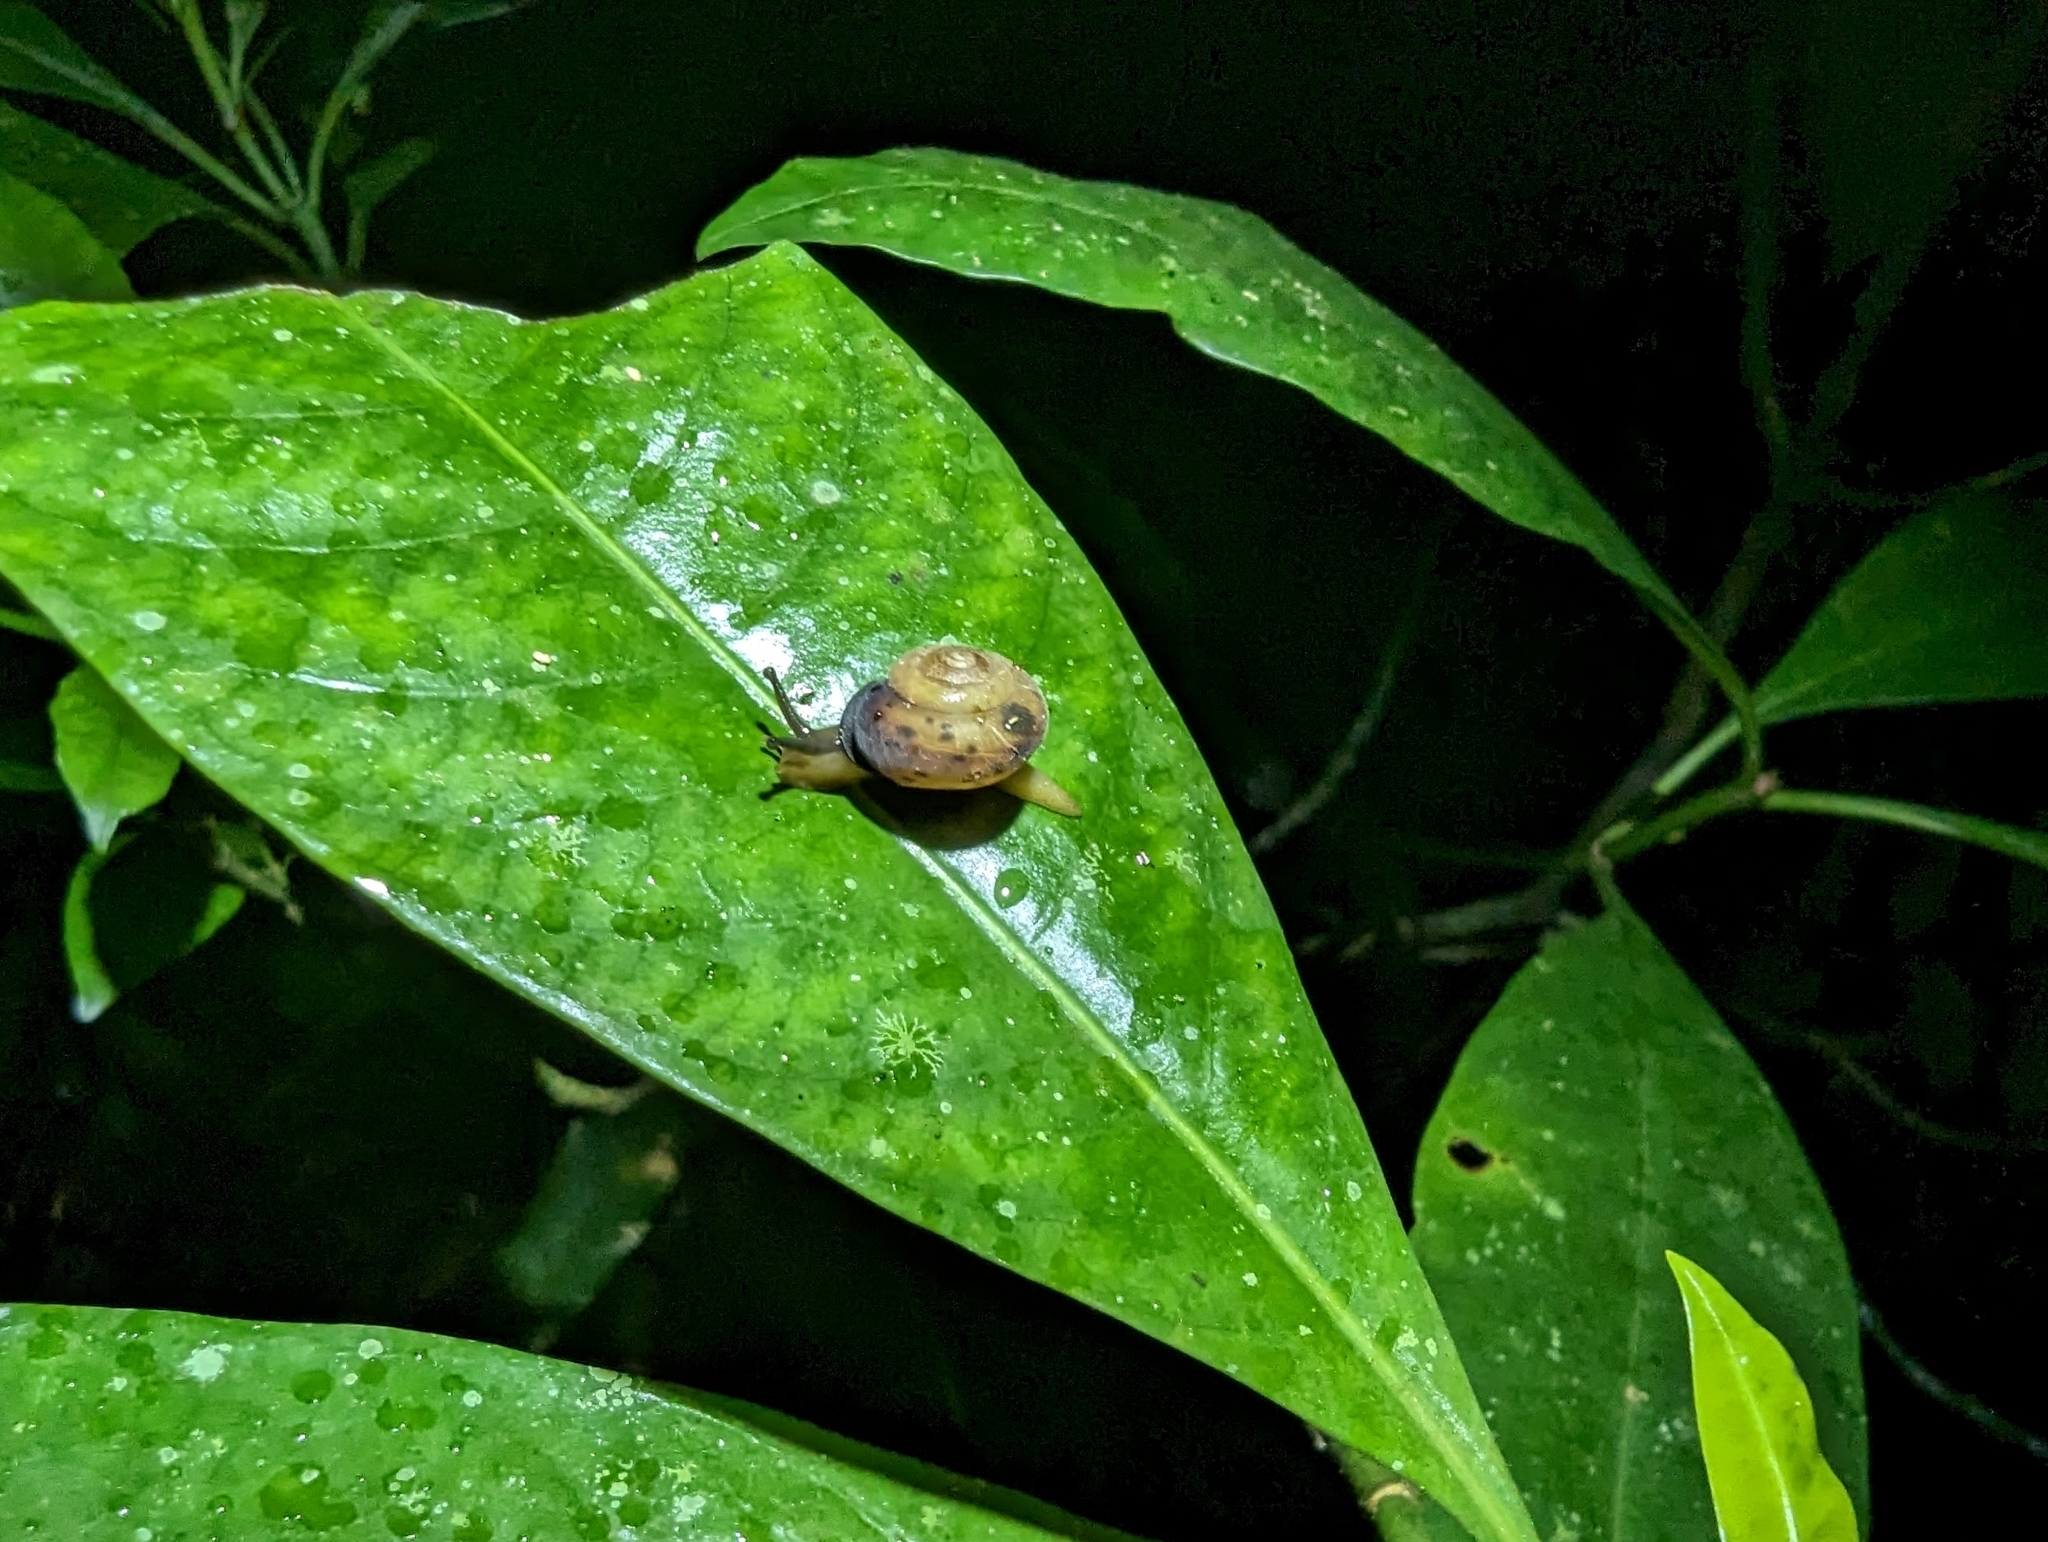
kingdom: Animalia
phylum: Mollusca
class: Gastropoda
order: Stylommatophora
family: Camaenidae
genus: Forrestena
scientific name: Forrestena delicata
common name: Mount lewis keeled snail
